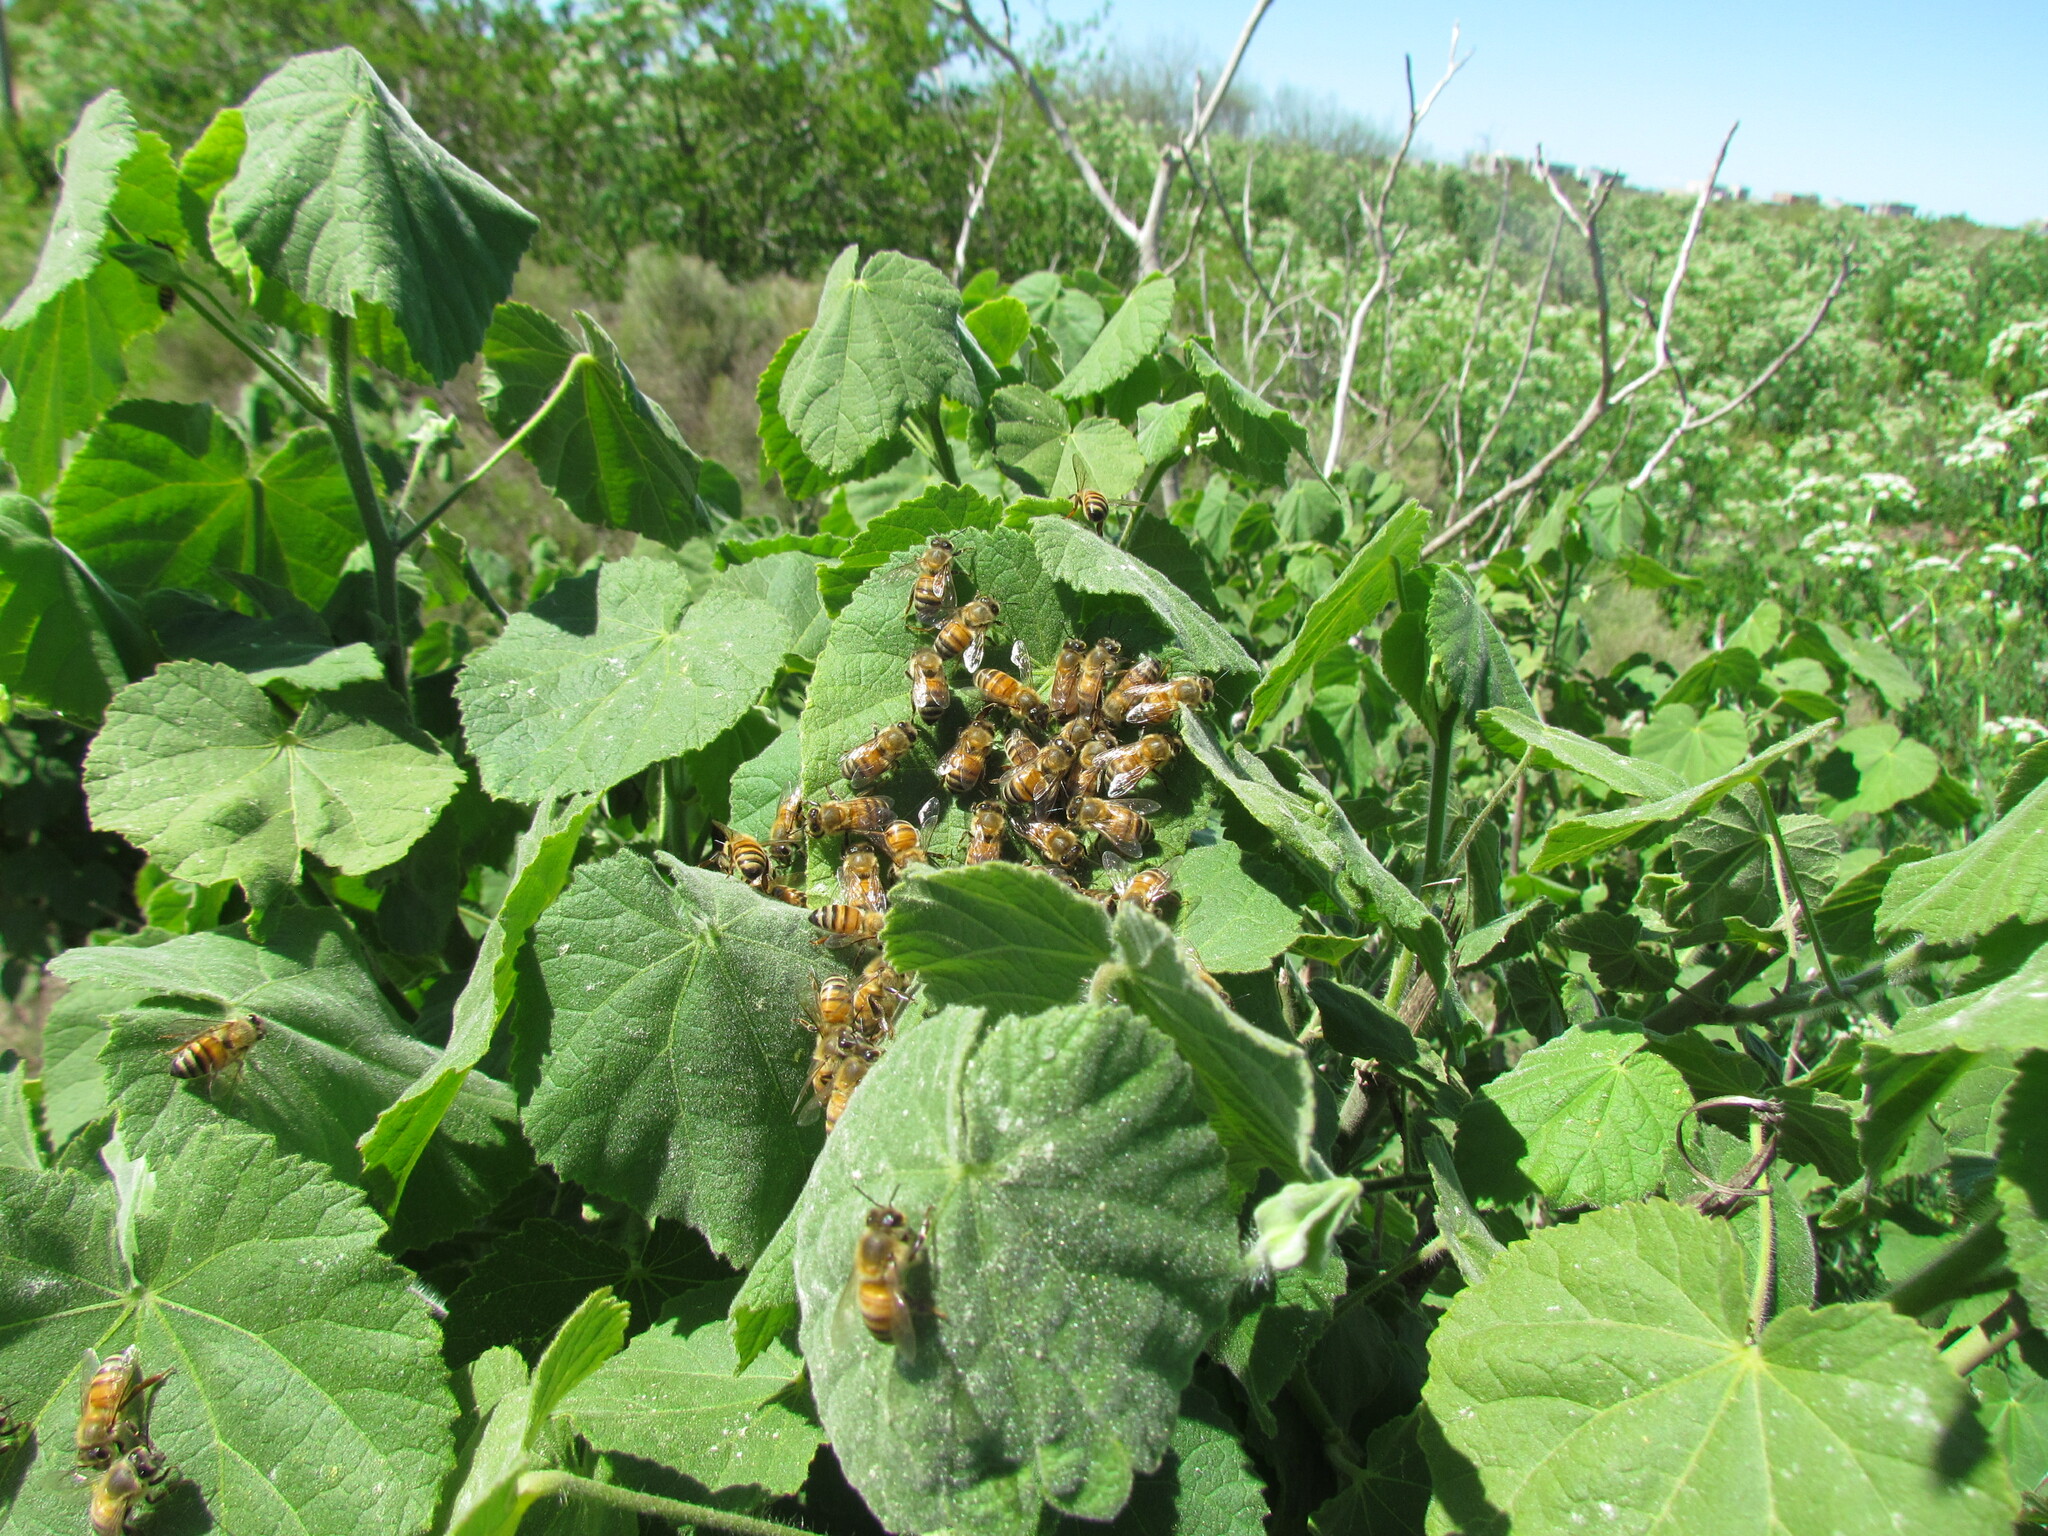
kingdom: Animalia
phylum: Arthropoda
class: Insecta
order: Hymenoptera
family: Apidae
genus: Apis
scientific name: Apis mellifera
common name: Honey bee
